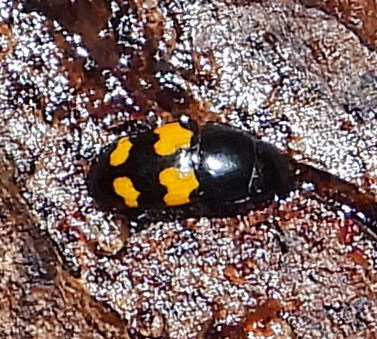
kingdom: Animalia
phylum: Arthropoda
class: Insecta
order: Coleoptera
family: Nitidulidae
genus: Glischrochilus
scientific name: Glischrochilus fasciatus
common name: Picnic beetle
